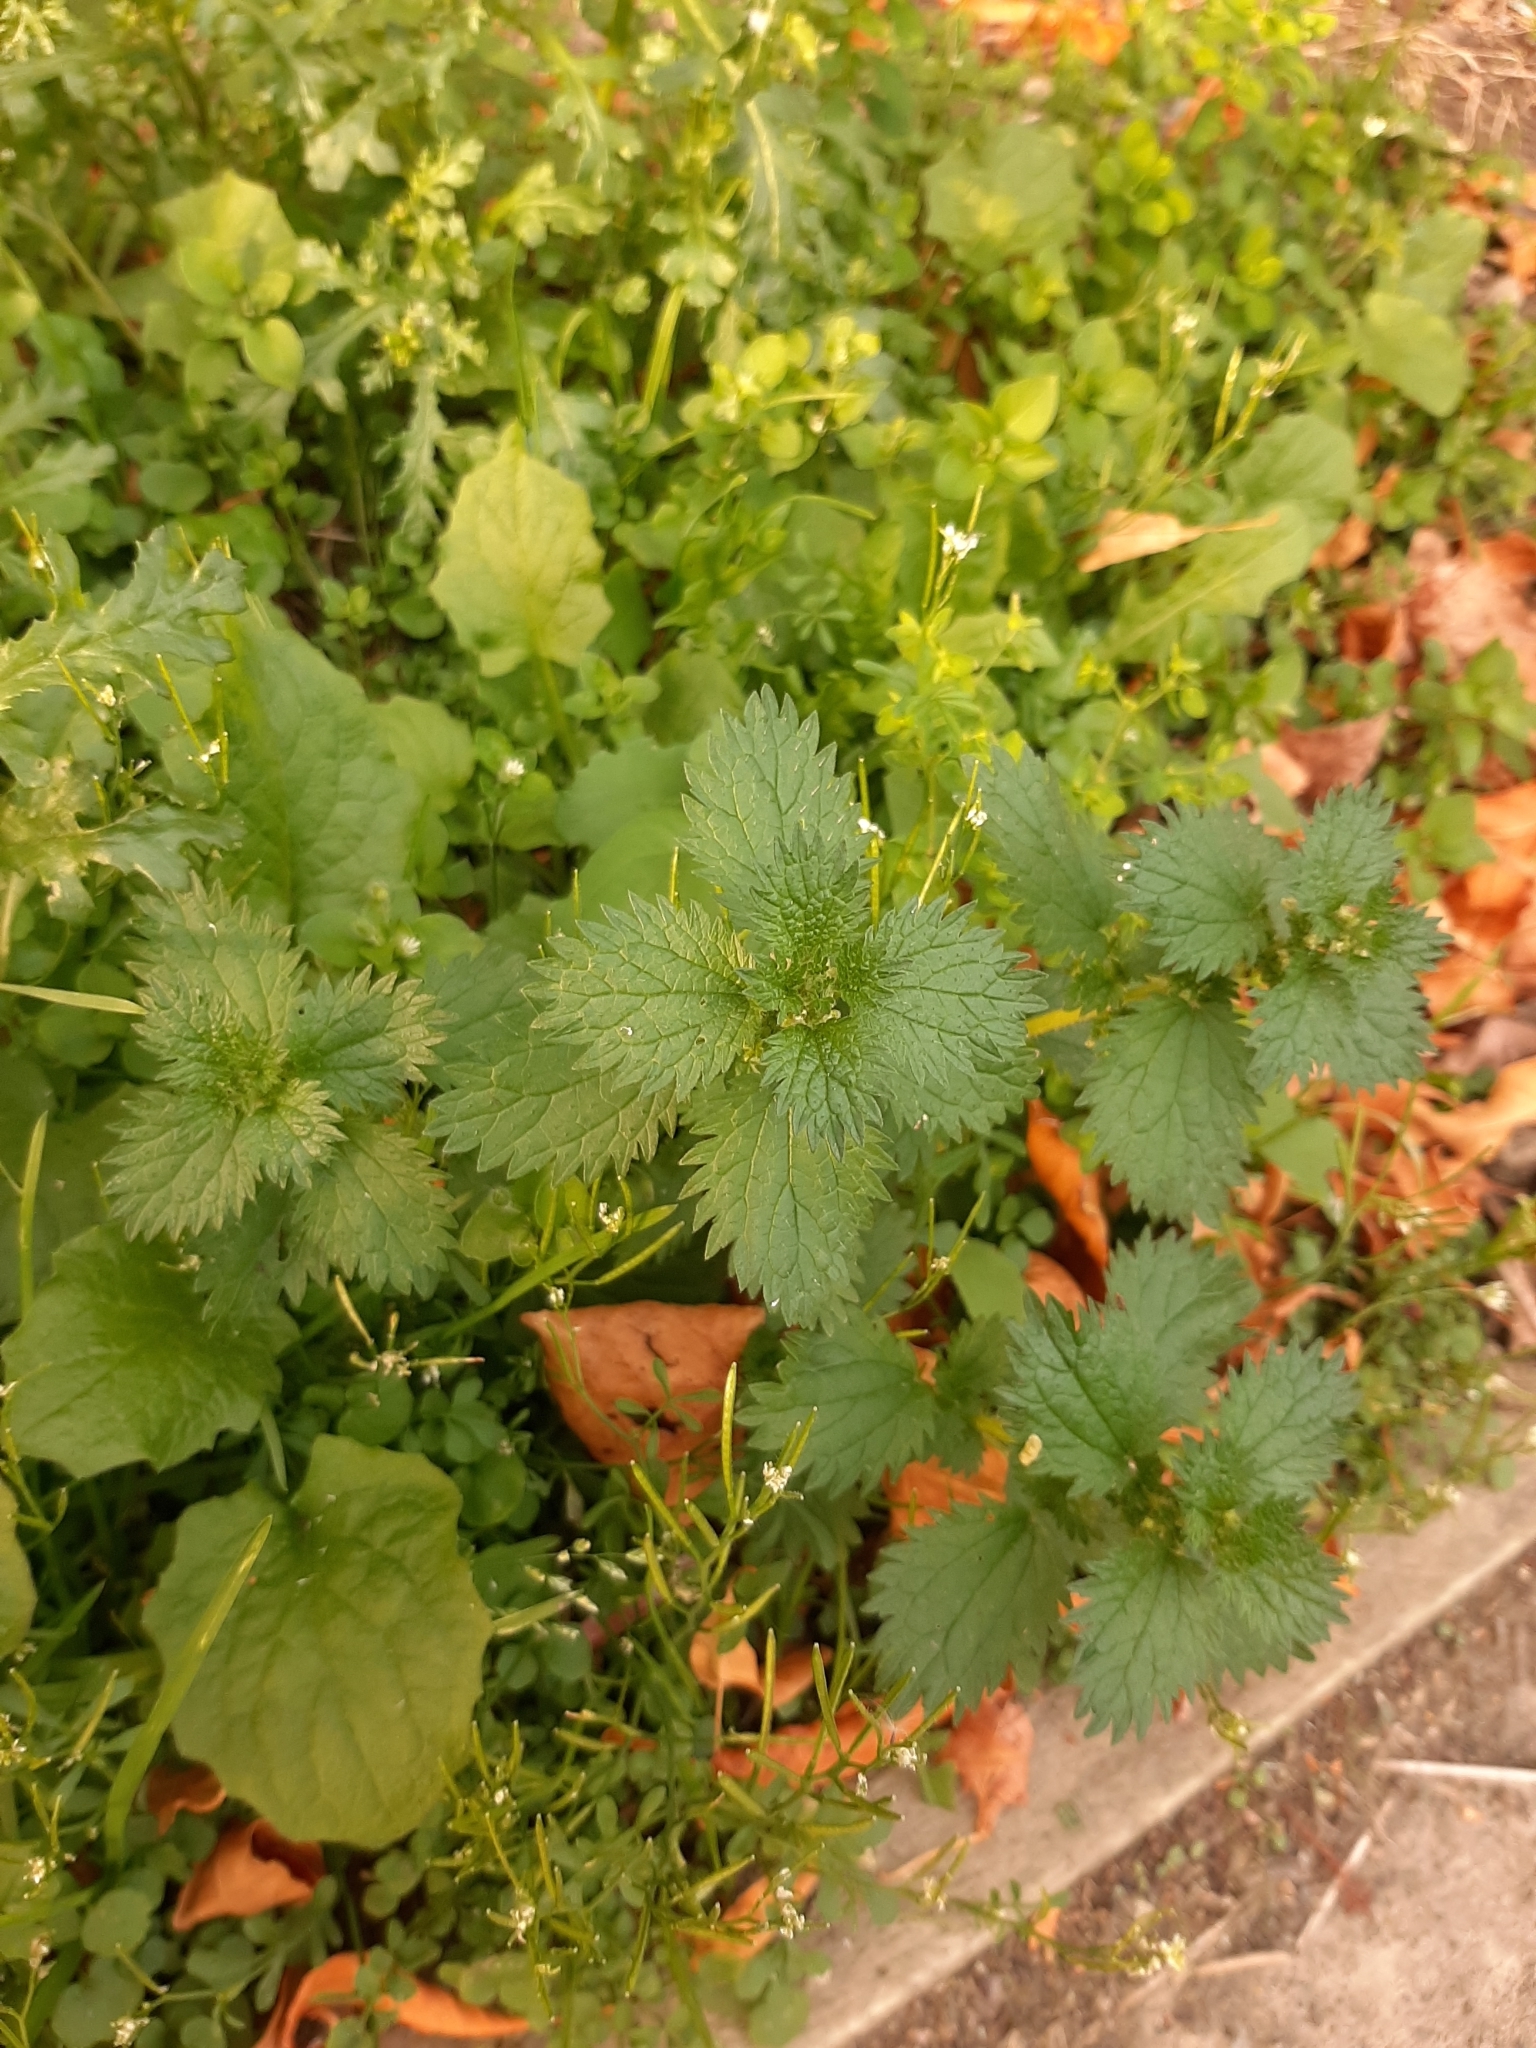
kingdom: Plantae
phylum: Tracheophyta
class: Magnoliopsida
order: Rosales
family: Urticaceae
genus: Urtica
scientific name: Urtica urens
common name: Dwarf nettle
